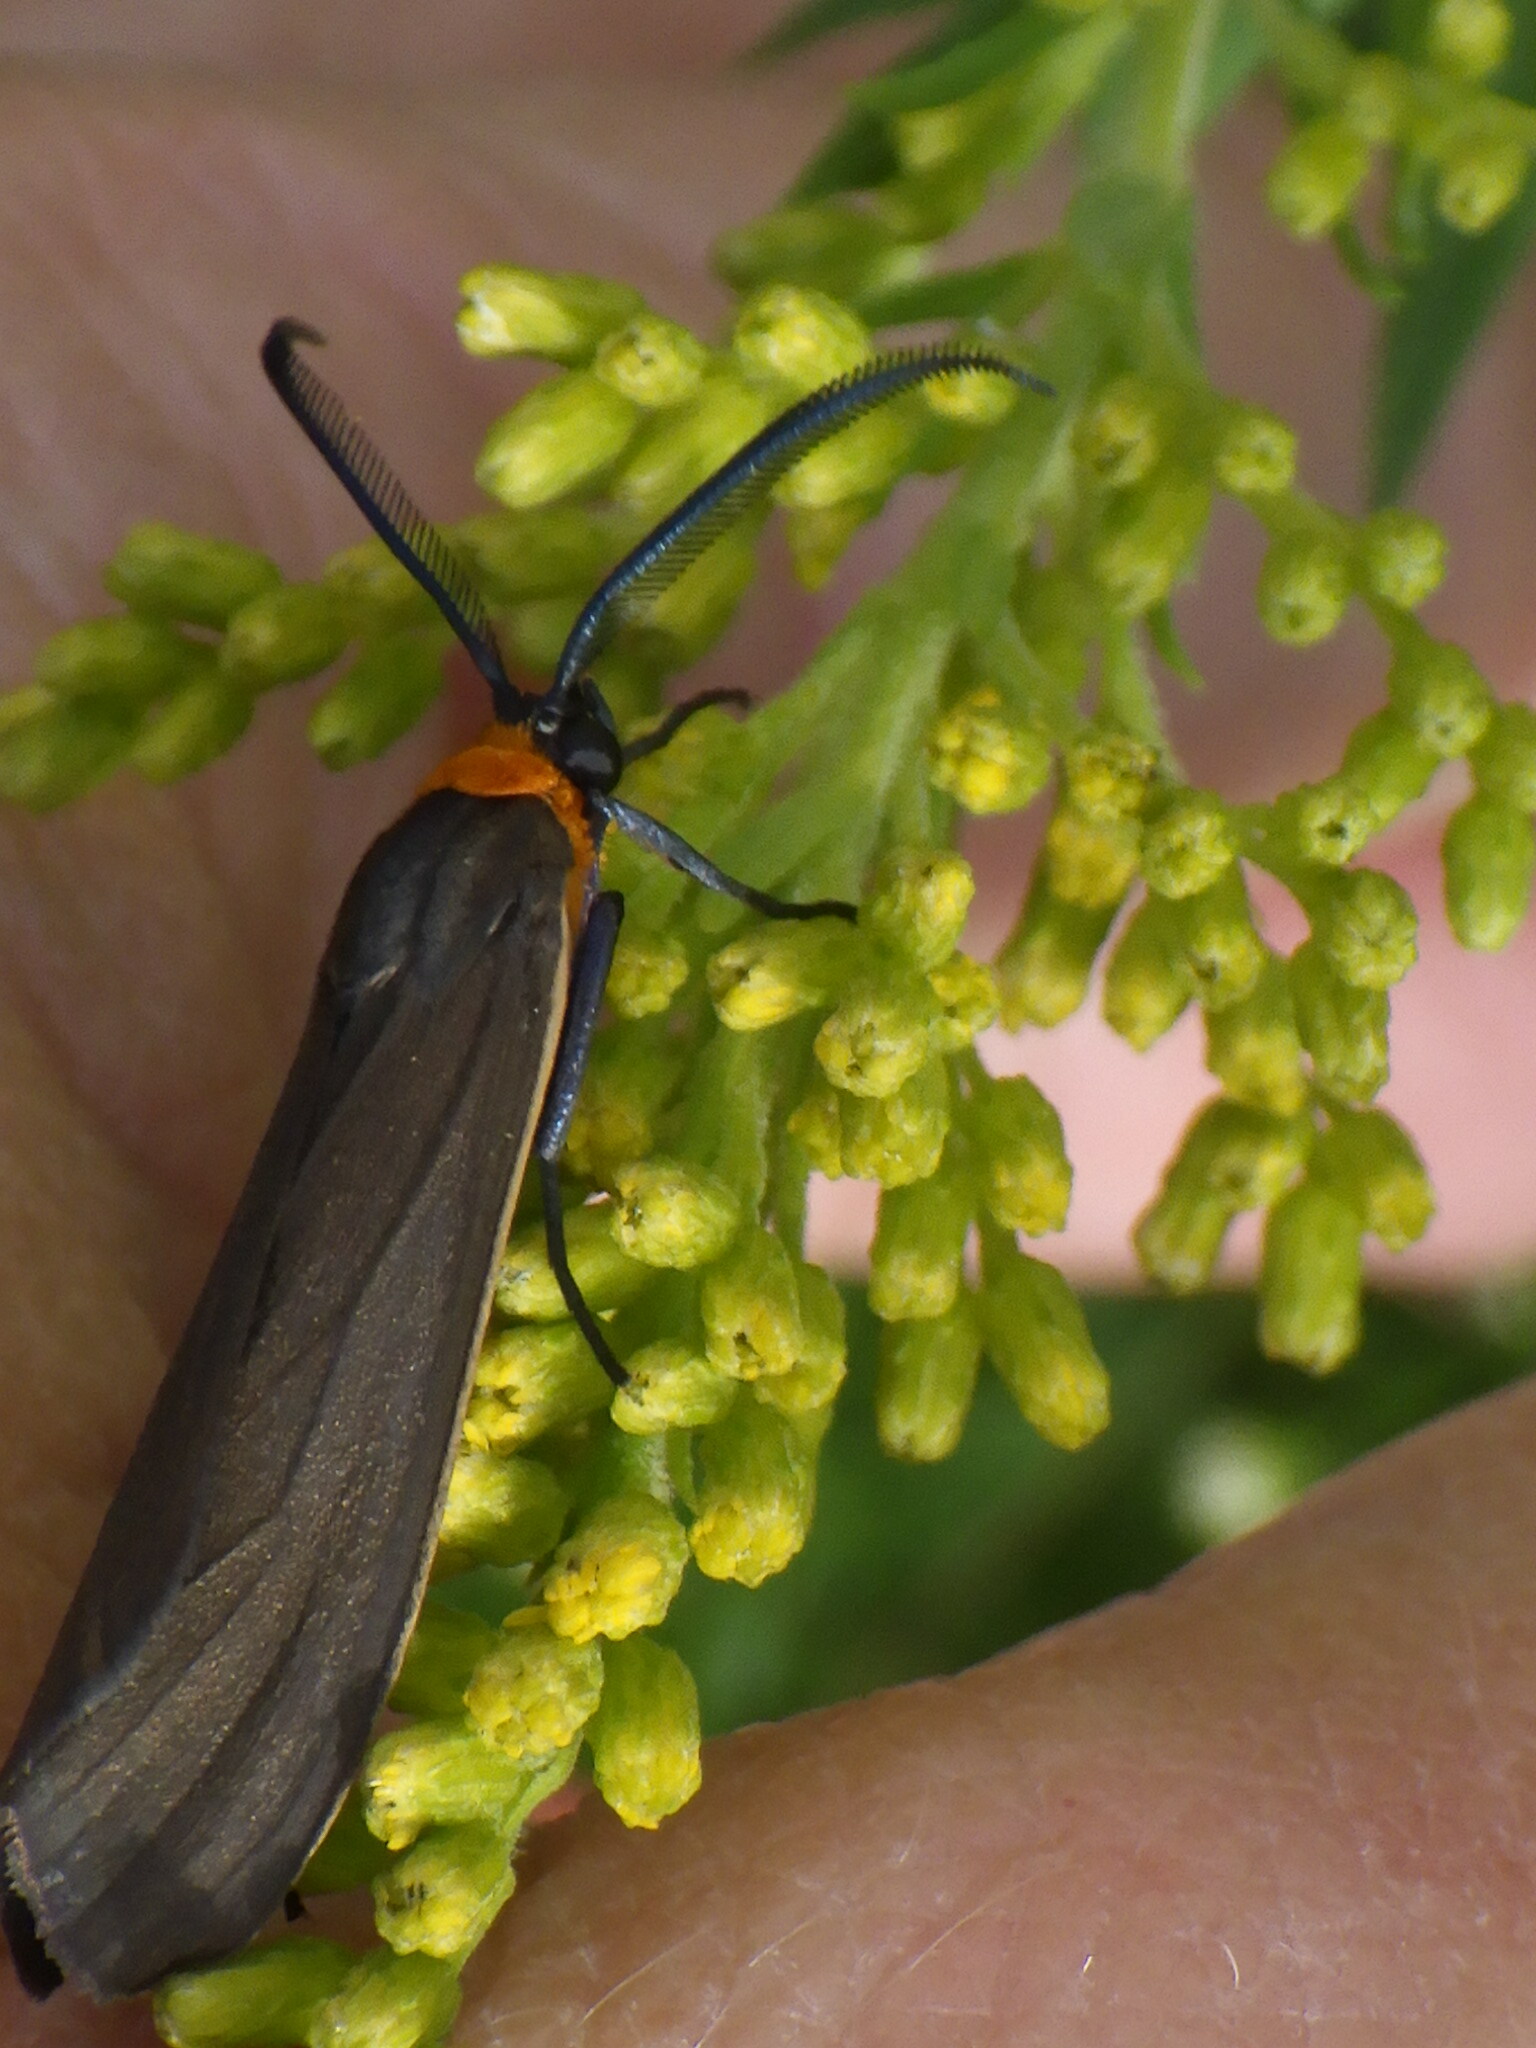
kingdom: Animalia
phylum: Arthropoda
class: Insecta
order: Lepidoptera
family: Erebidae
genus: Cisseps
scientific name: Cisseps fulvicollis
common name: Yellow-collared scape moth
